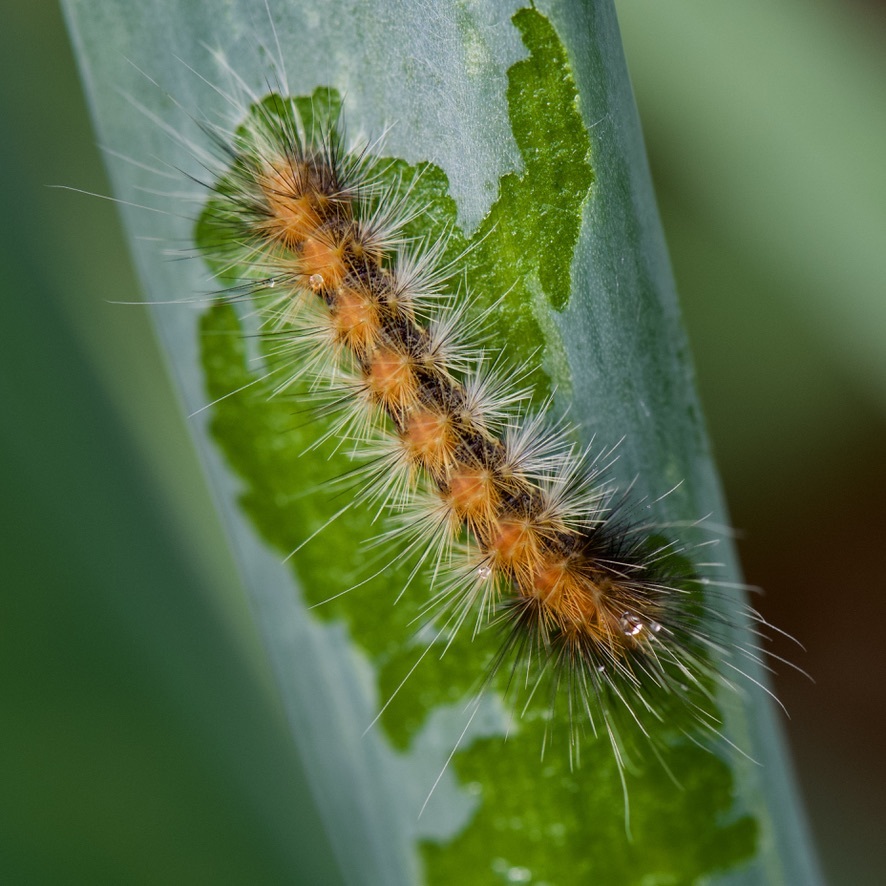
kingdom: Animalia
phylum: Arthropoda
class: Insecta
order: Lepidoptera
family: Erebidae
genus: Spilosoma
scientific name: Spilosoma virginica
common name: Virginia tiger moth
